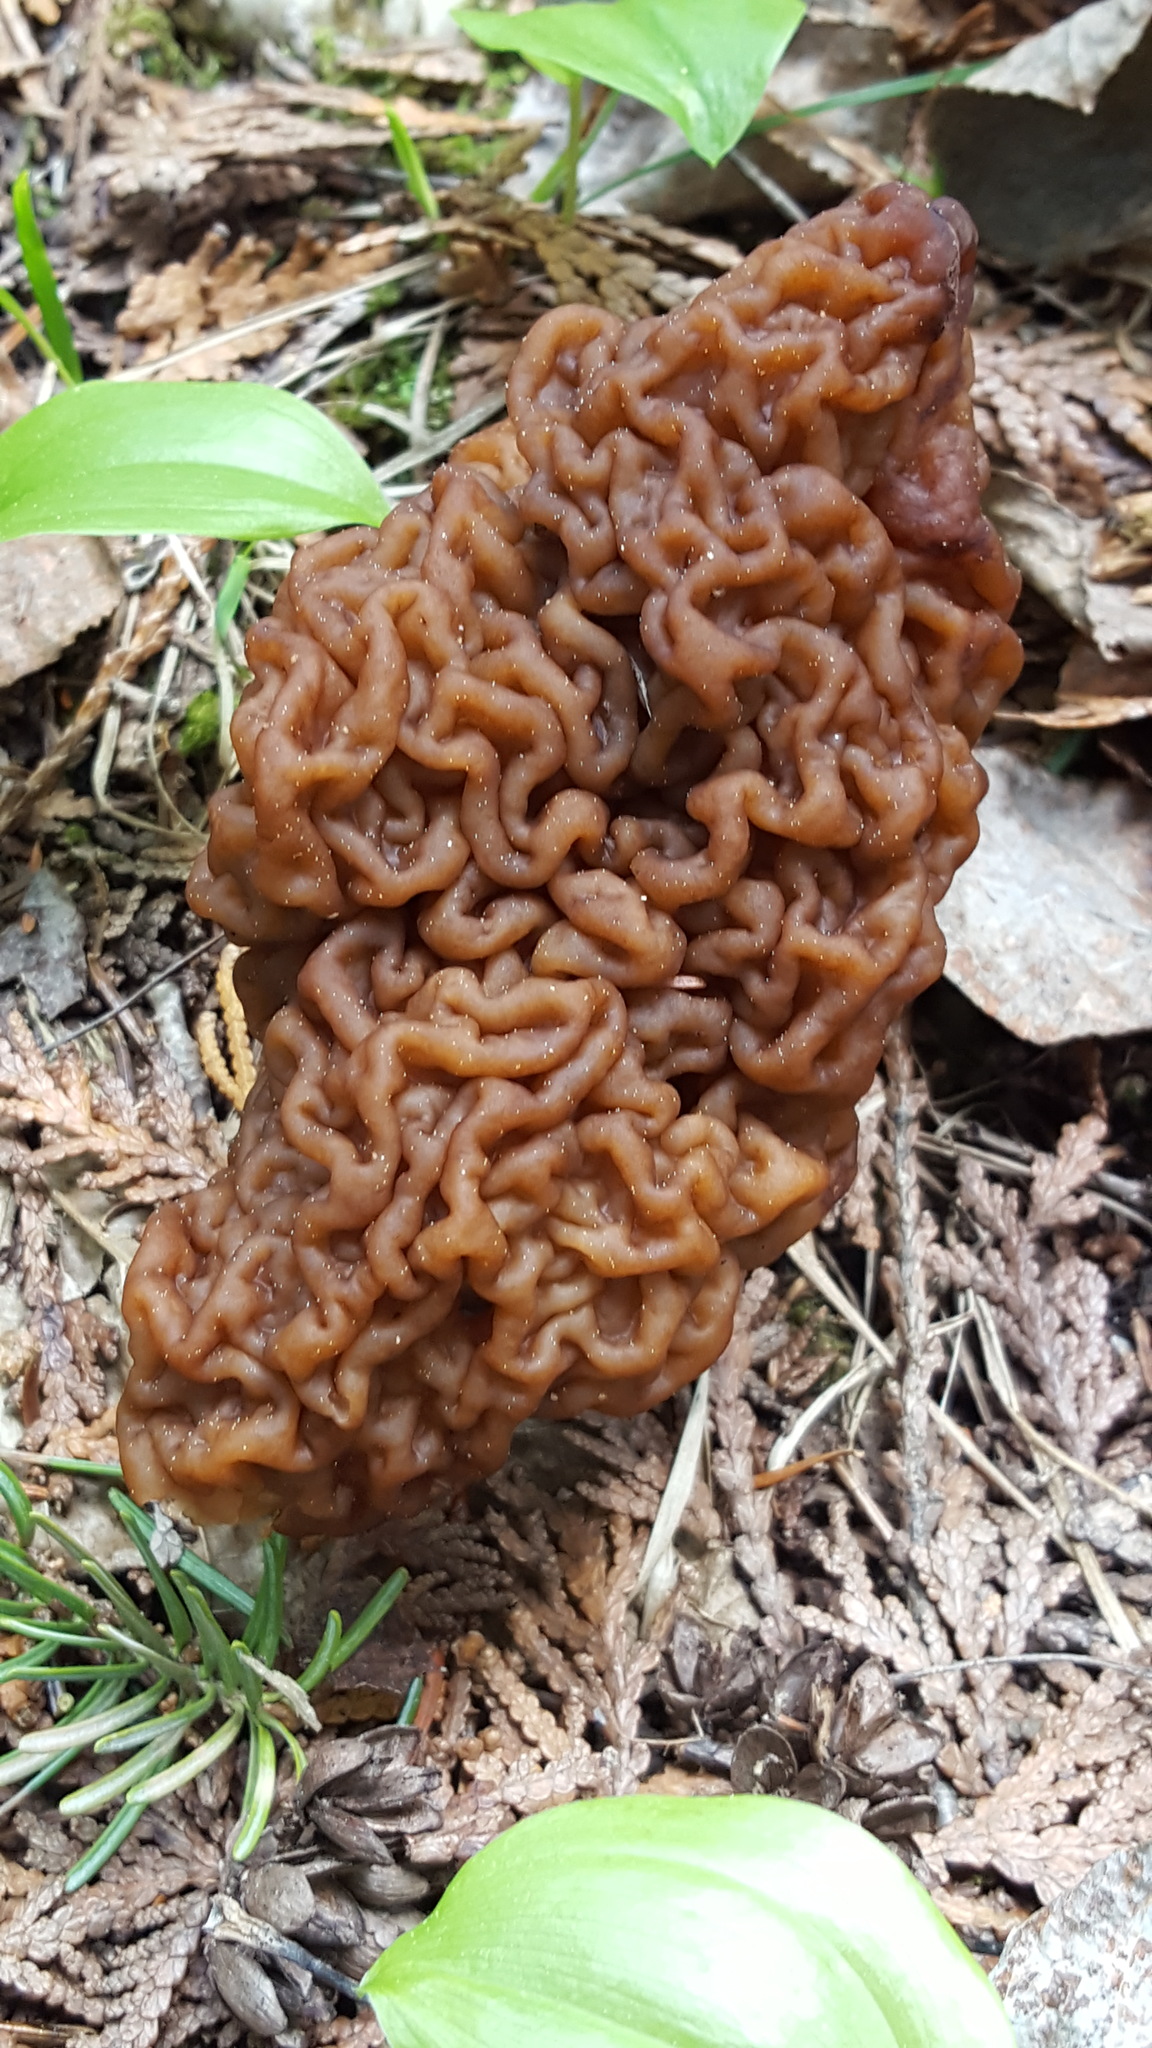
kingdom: Fungi
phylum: Ascomycota
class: Pezizomycetes
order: Pezizales
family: Discinaceae
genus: Gyromitra
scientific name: Gyromitra esculenta
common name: False morel
